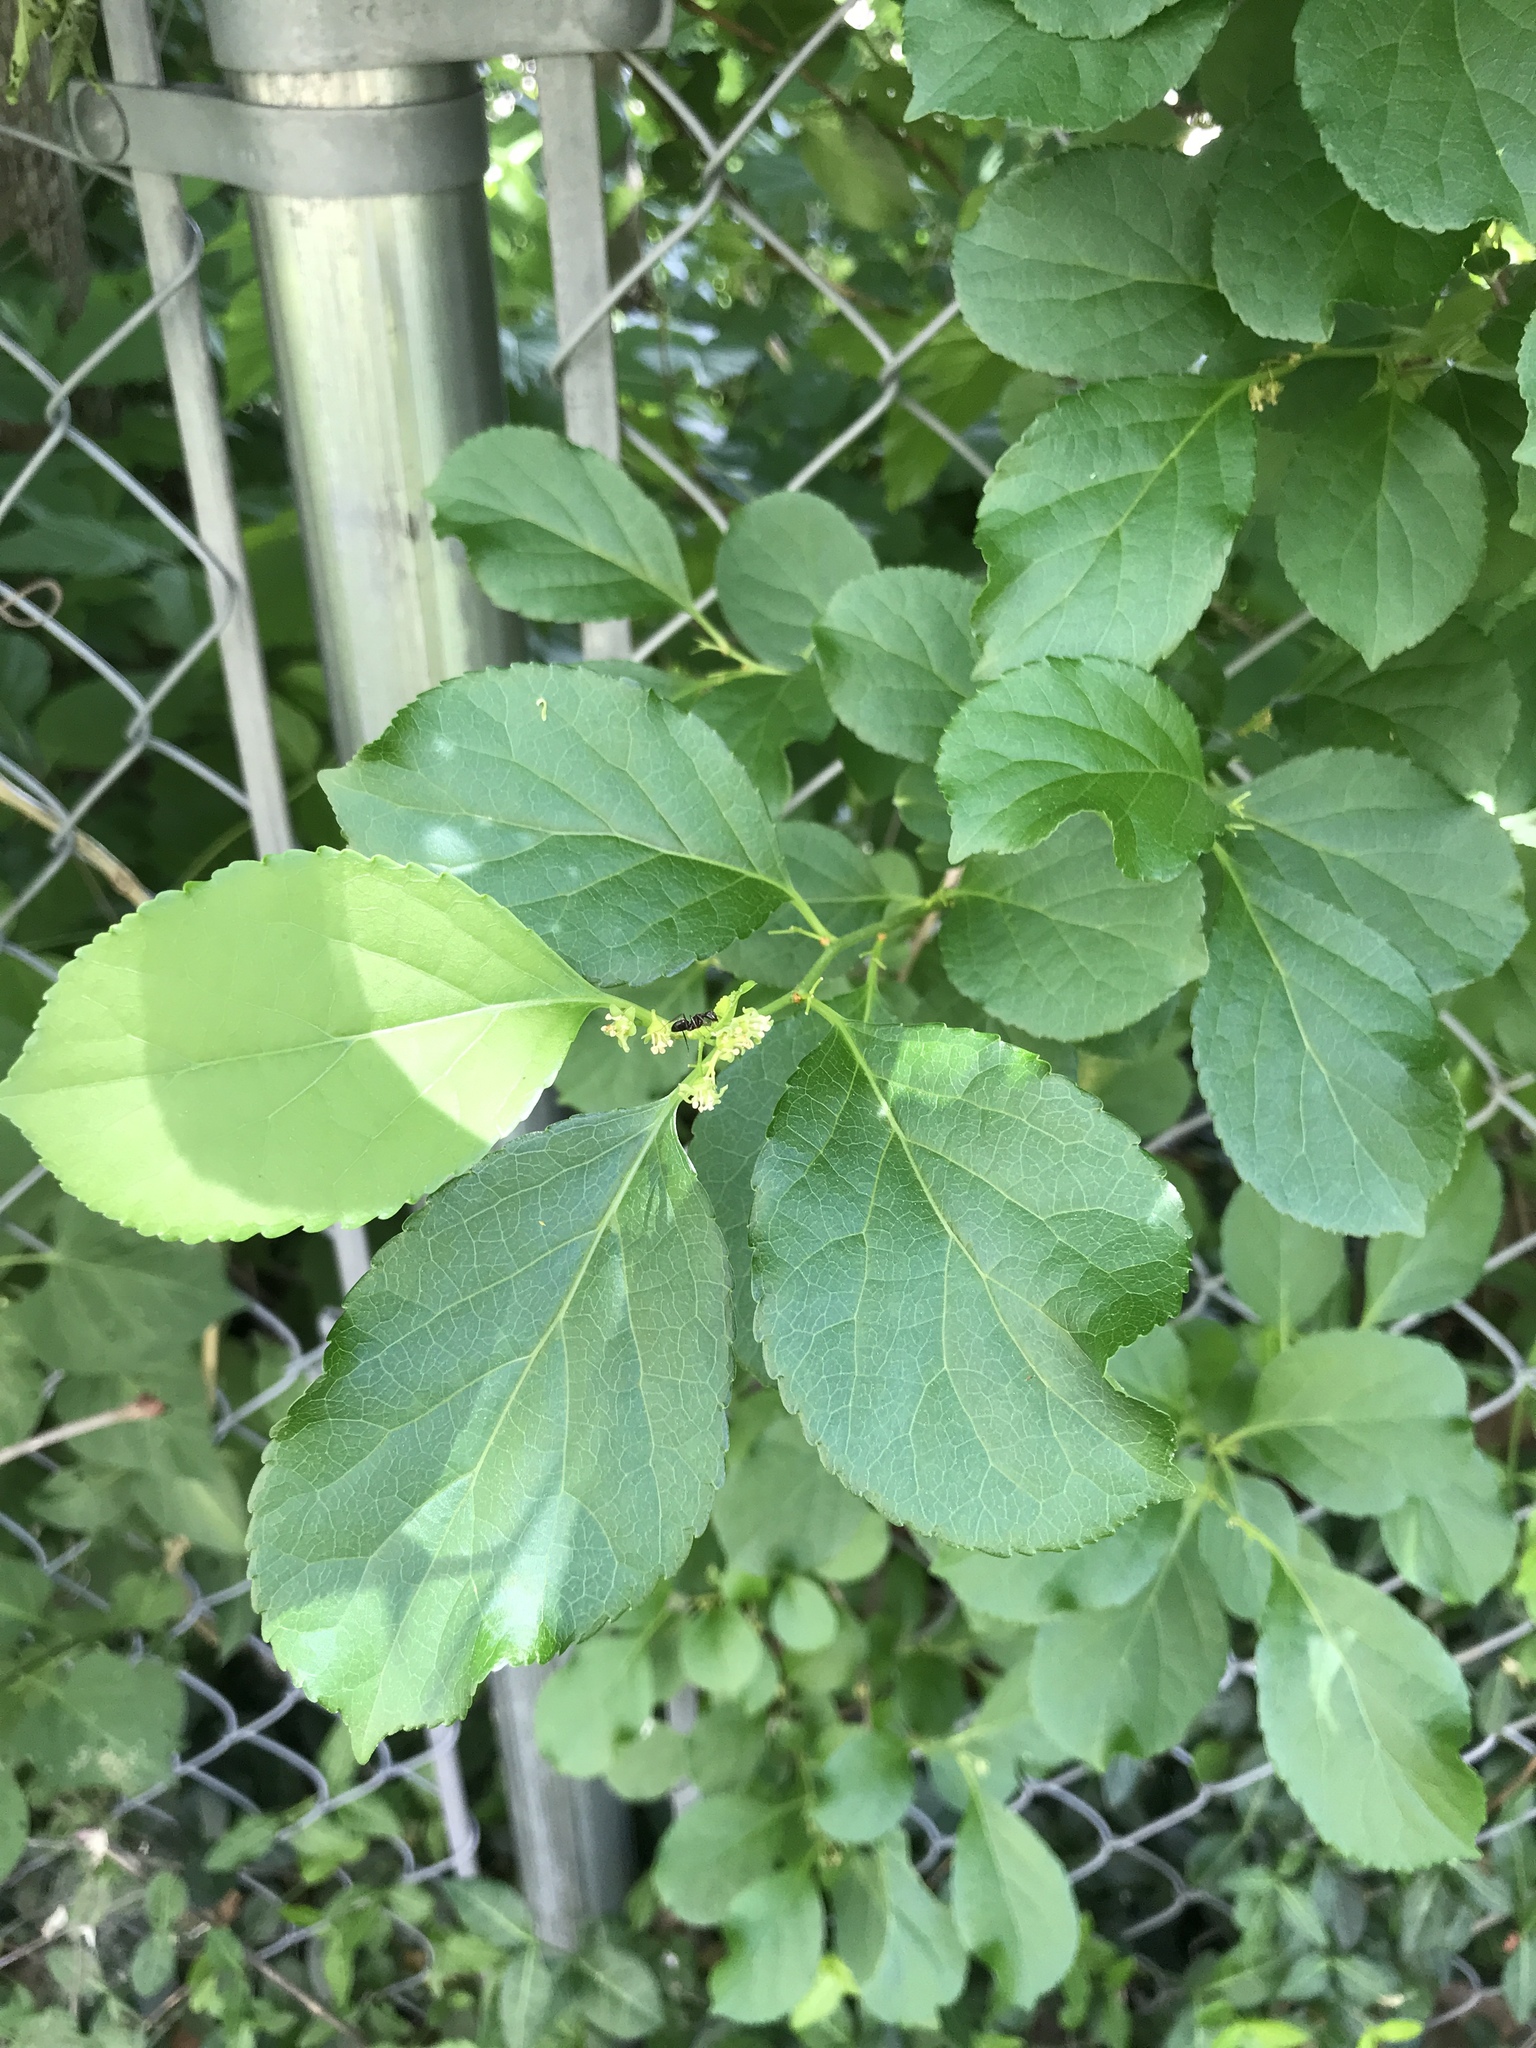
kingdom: Plantae
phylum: Tracheophyta
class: Magnoliopsida
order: Celastrales
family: Celastraceae
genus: Celastrus
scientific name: Celastrus orbiculatus
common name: Oriental bittersweet
